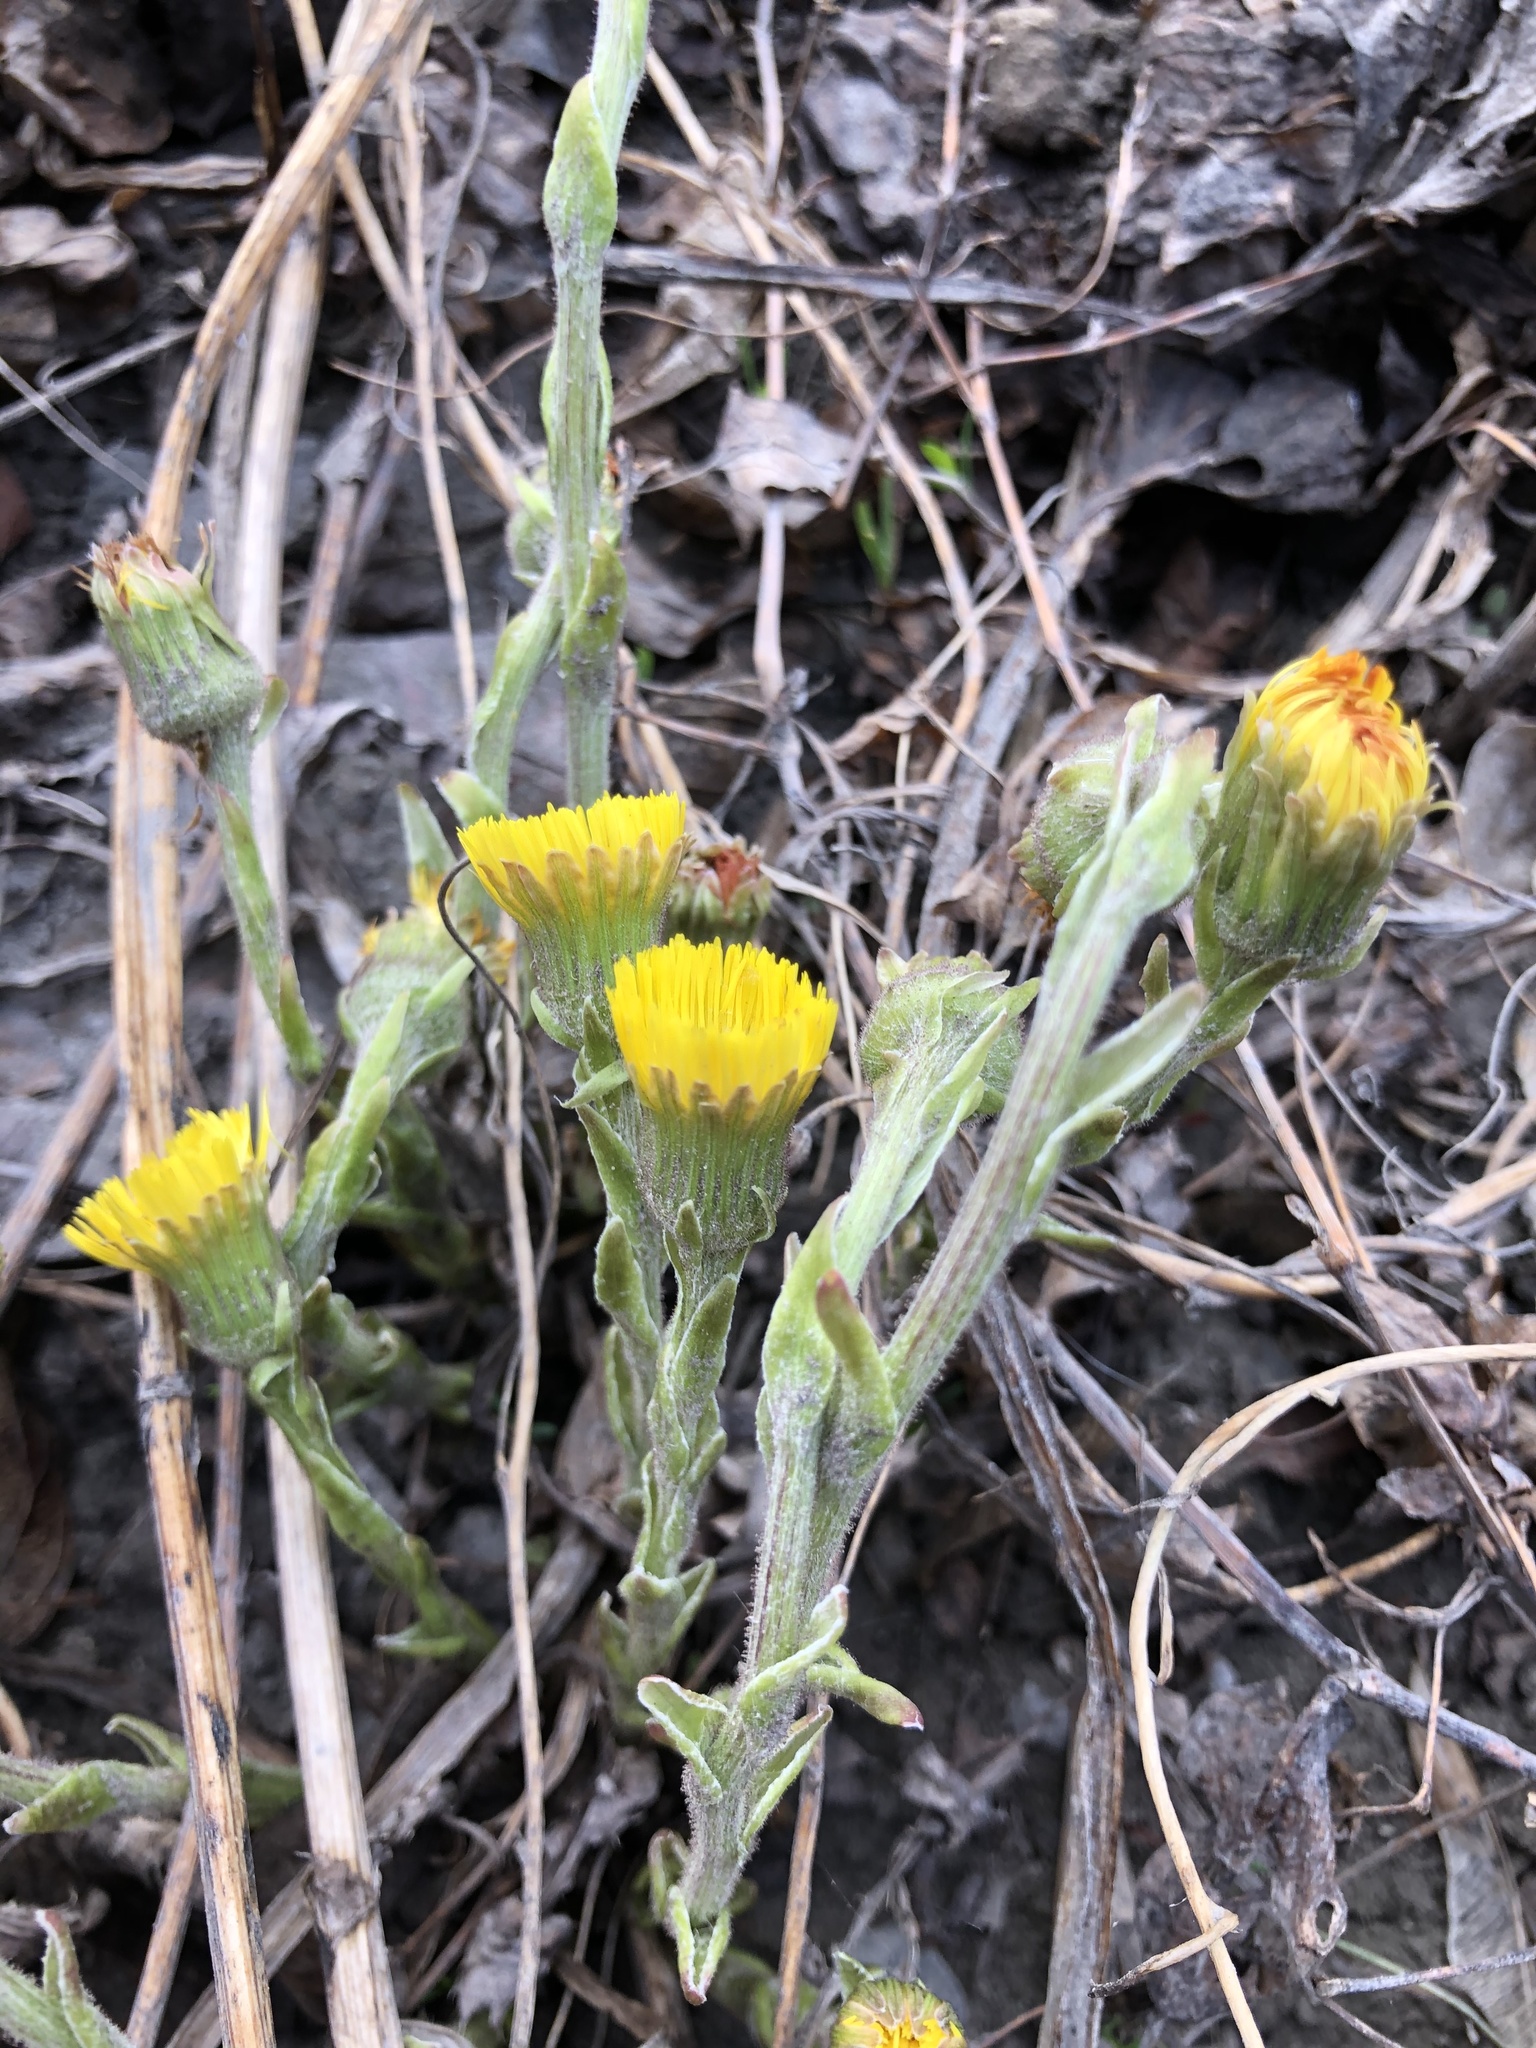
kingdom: Plantae
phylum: Tracheophyta
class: Magnoliopsida
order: Asterales
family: Asteraceae
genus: Tussilago
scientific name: Tussilago farfara
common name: Coltsfoot
